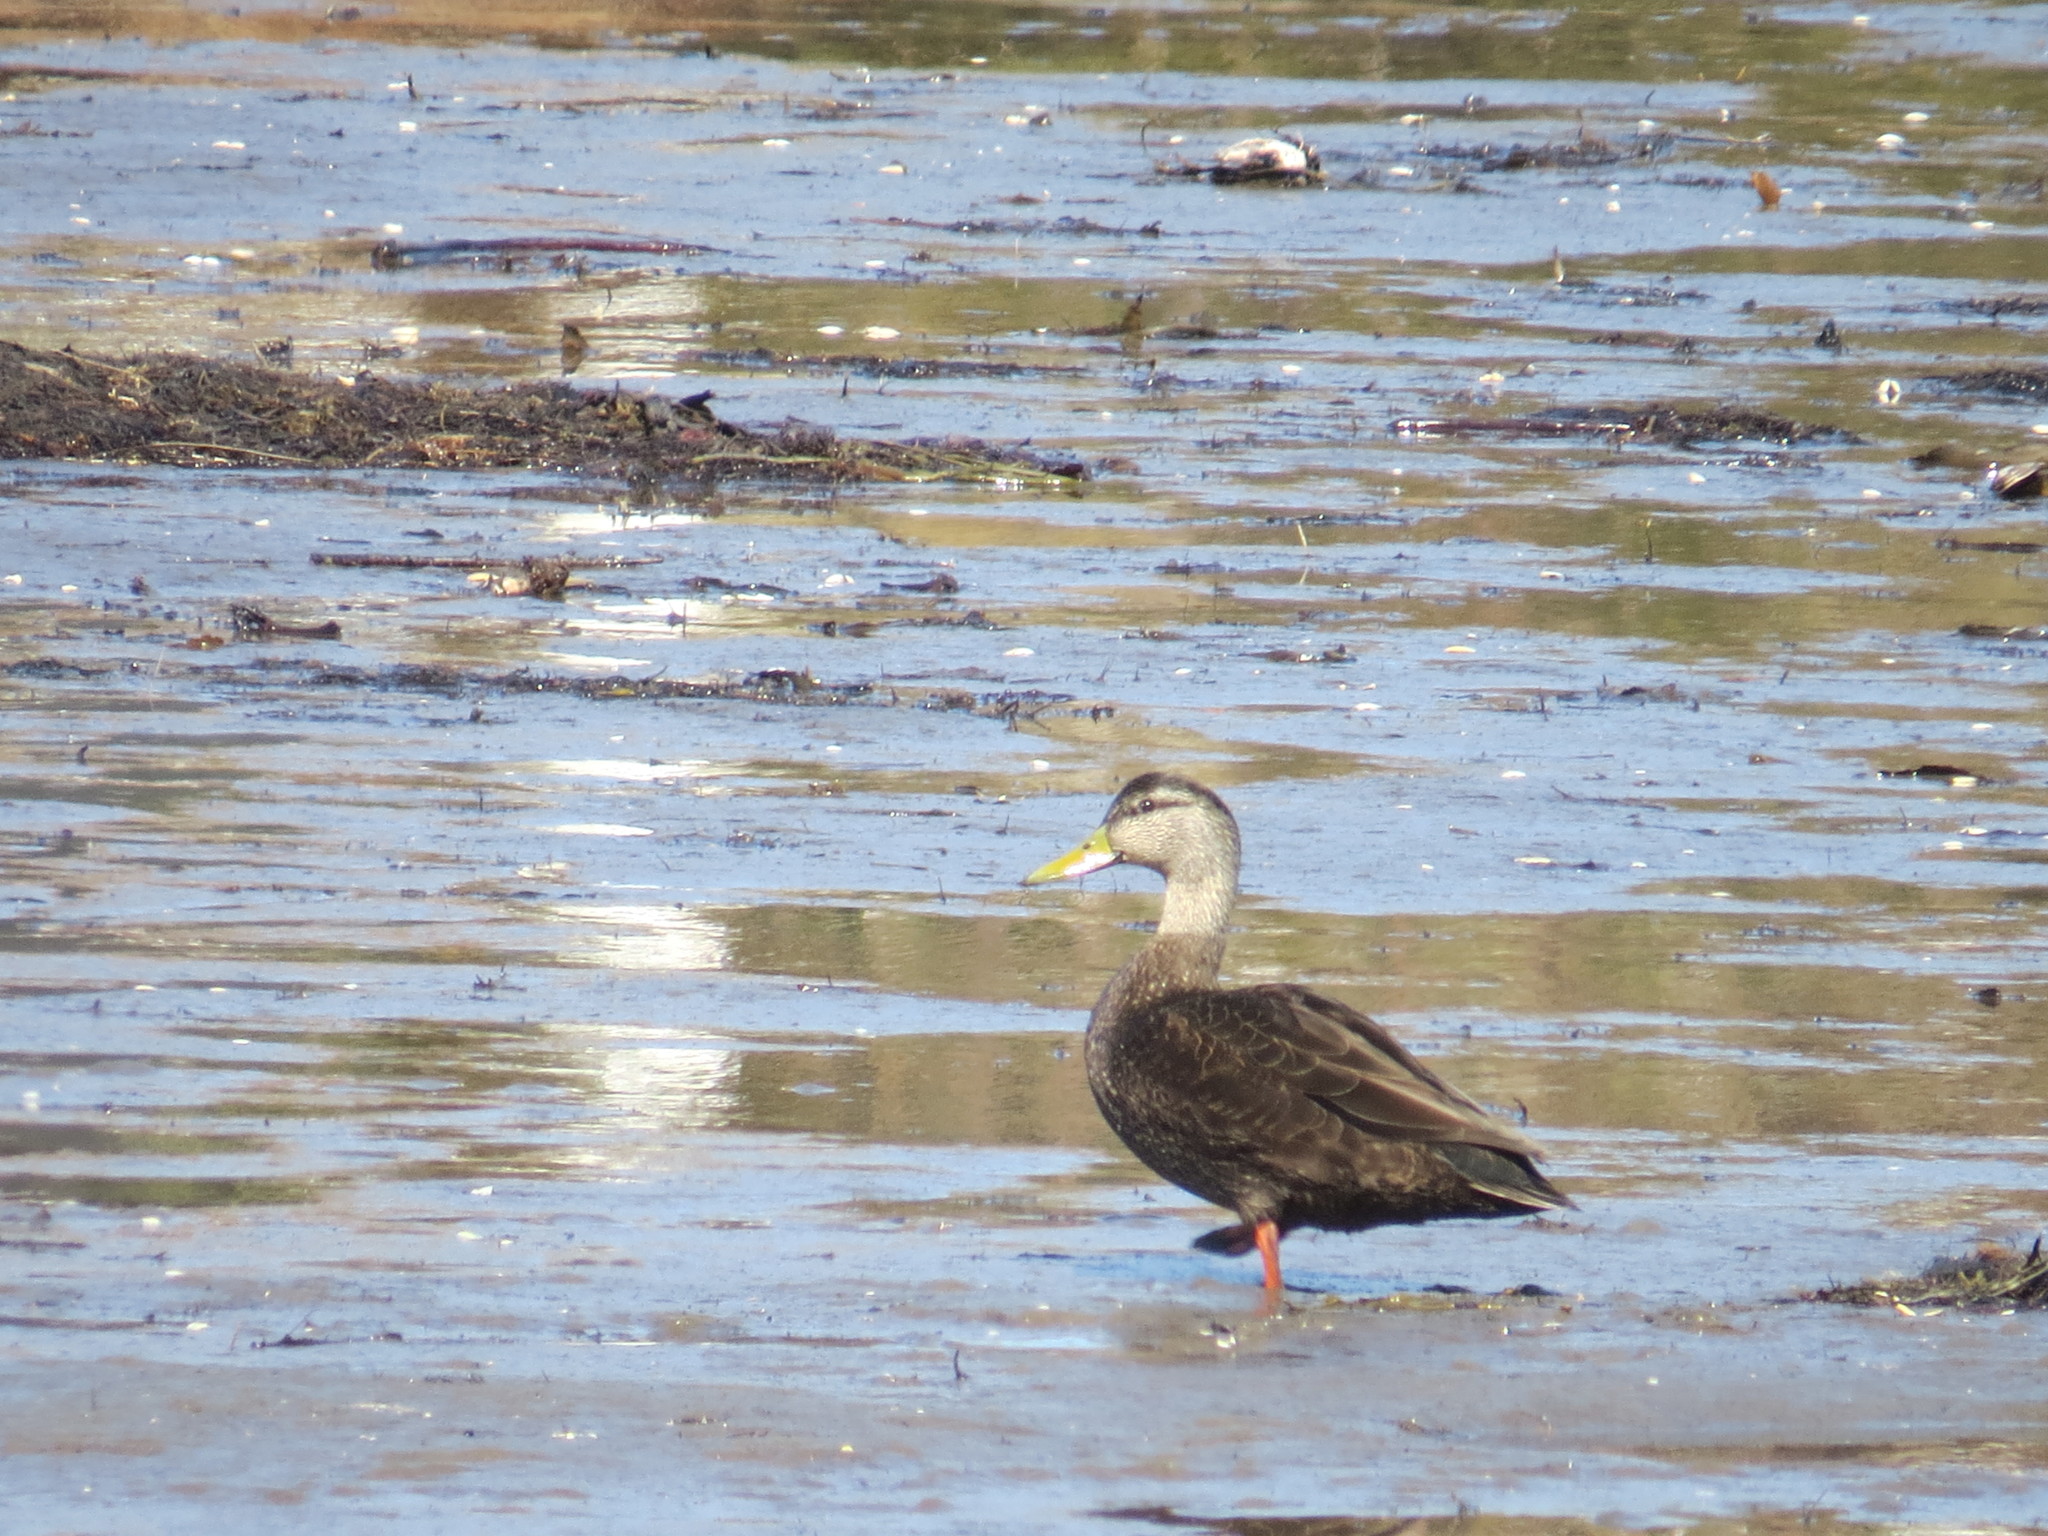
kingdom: Animalia
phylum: Chordata
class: Aves
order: Anseriformes
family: Anatidae
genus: Anas
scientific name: Anas platyrhynchos
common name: Mallard
